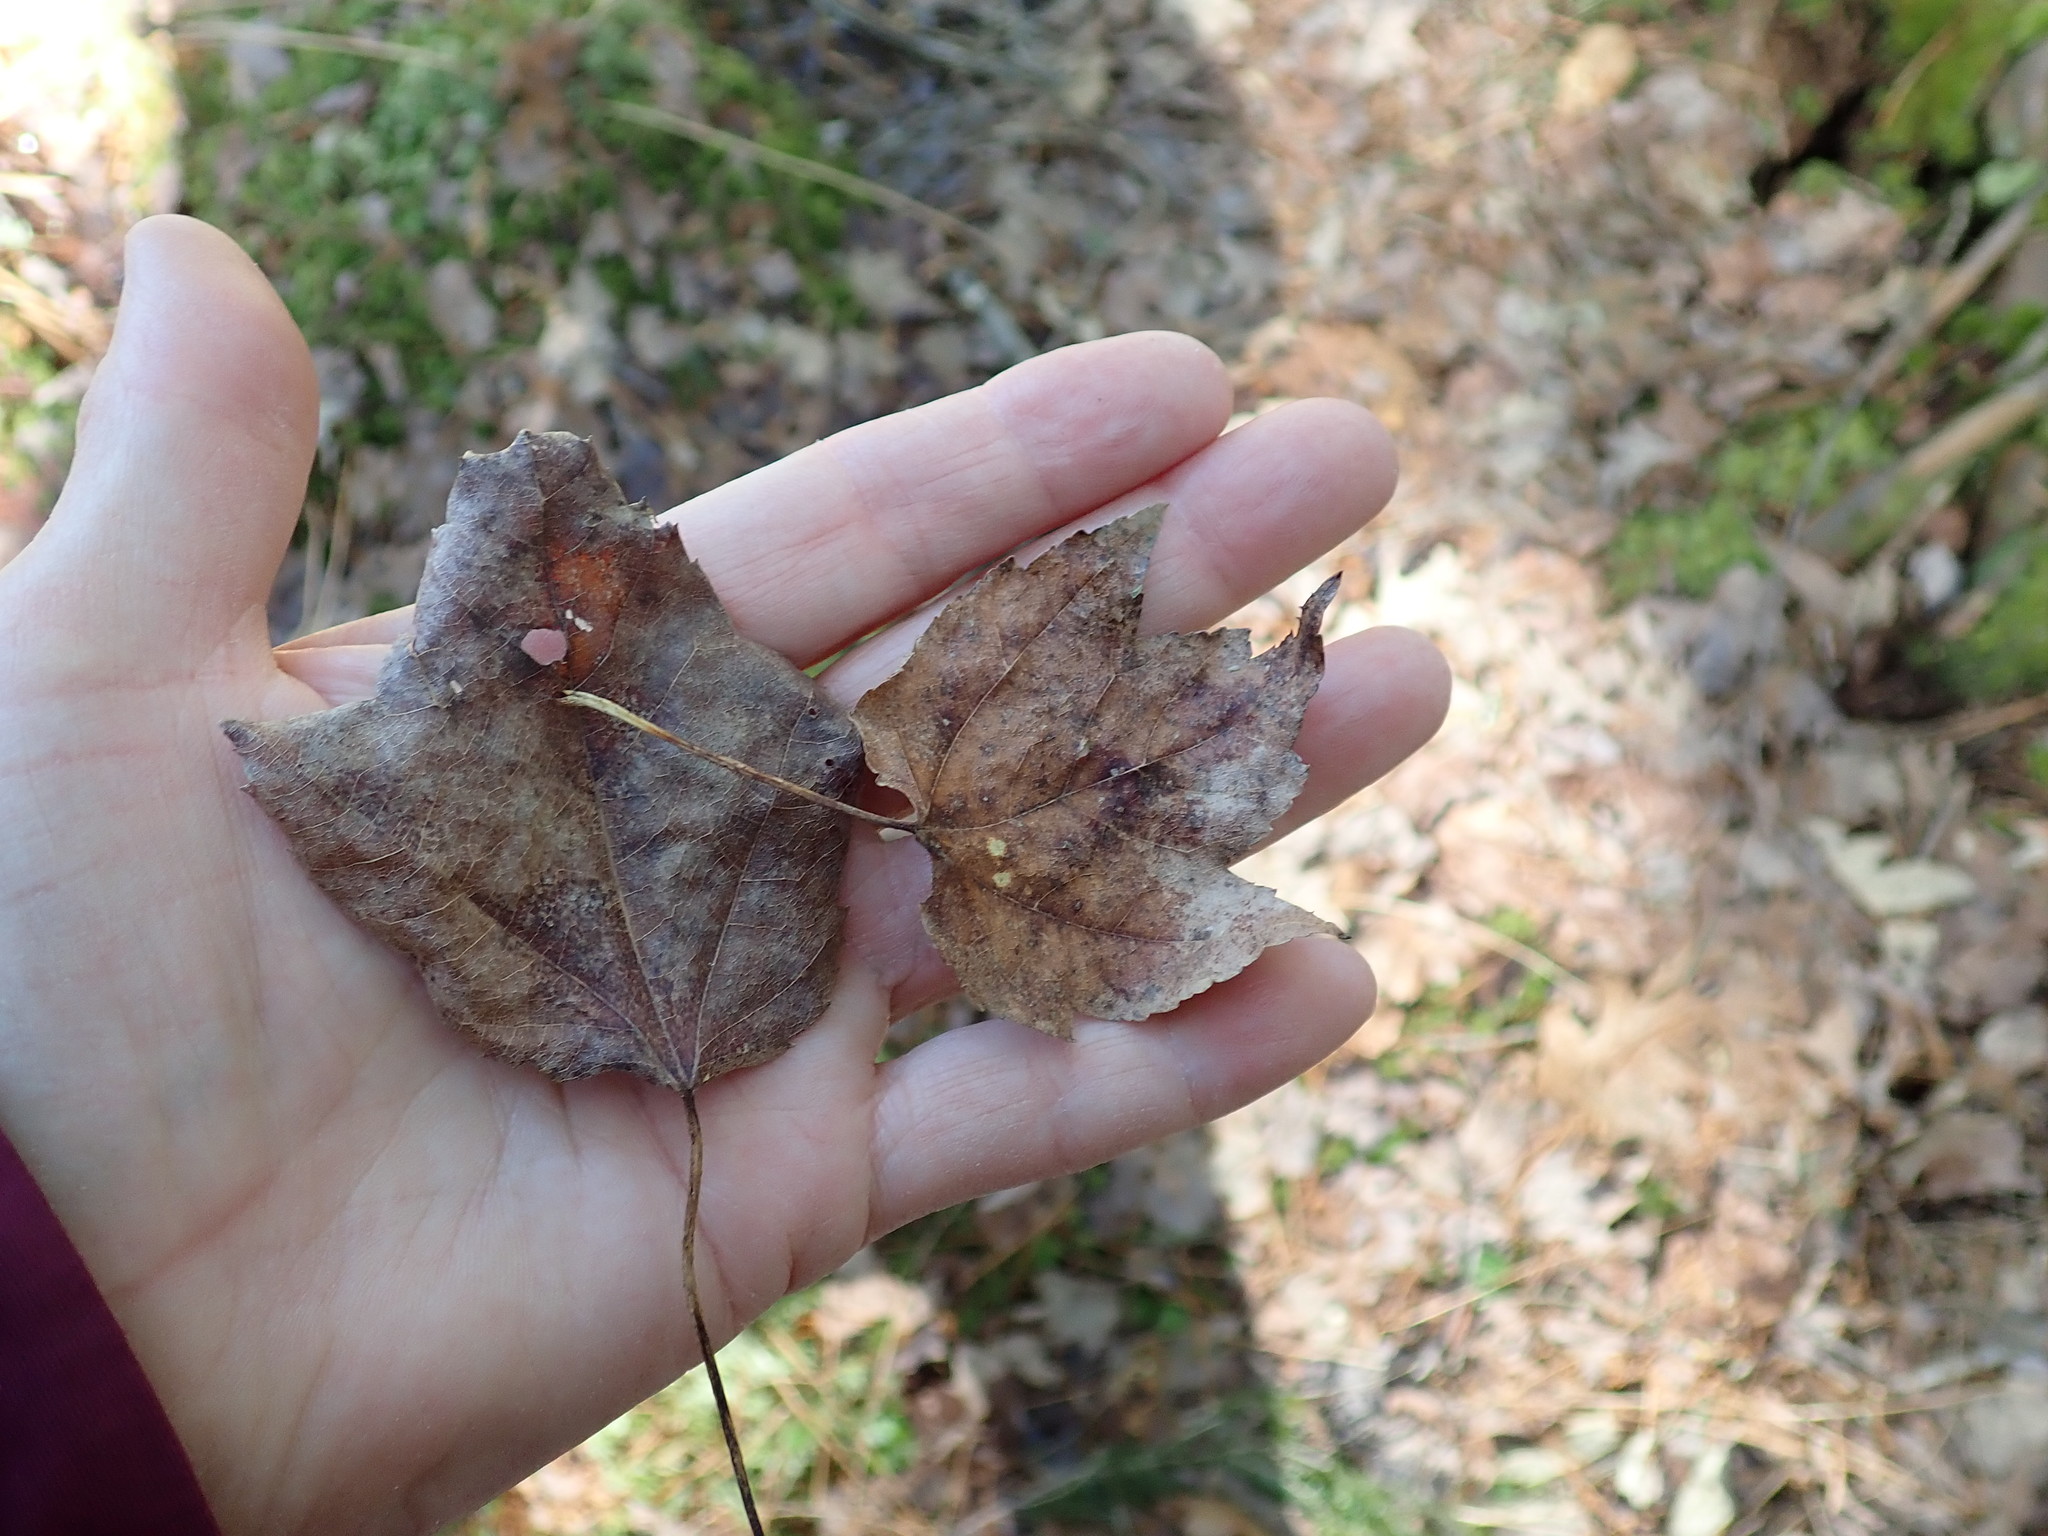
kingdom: Plantae
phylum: Tracheophyta
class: Magnoliopsida
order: Sapindales
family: Sapindaceae
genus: Acer
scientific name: Acer rubrum
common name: Red maple
